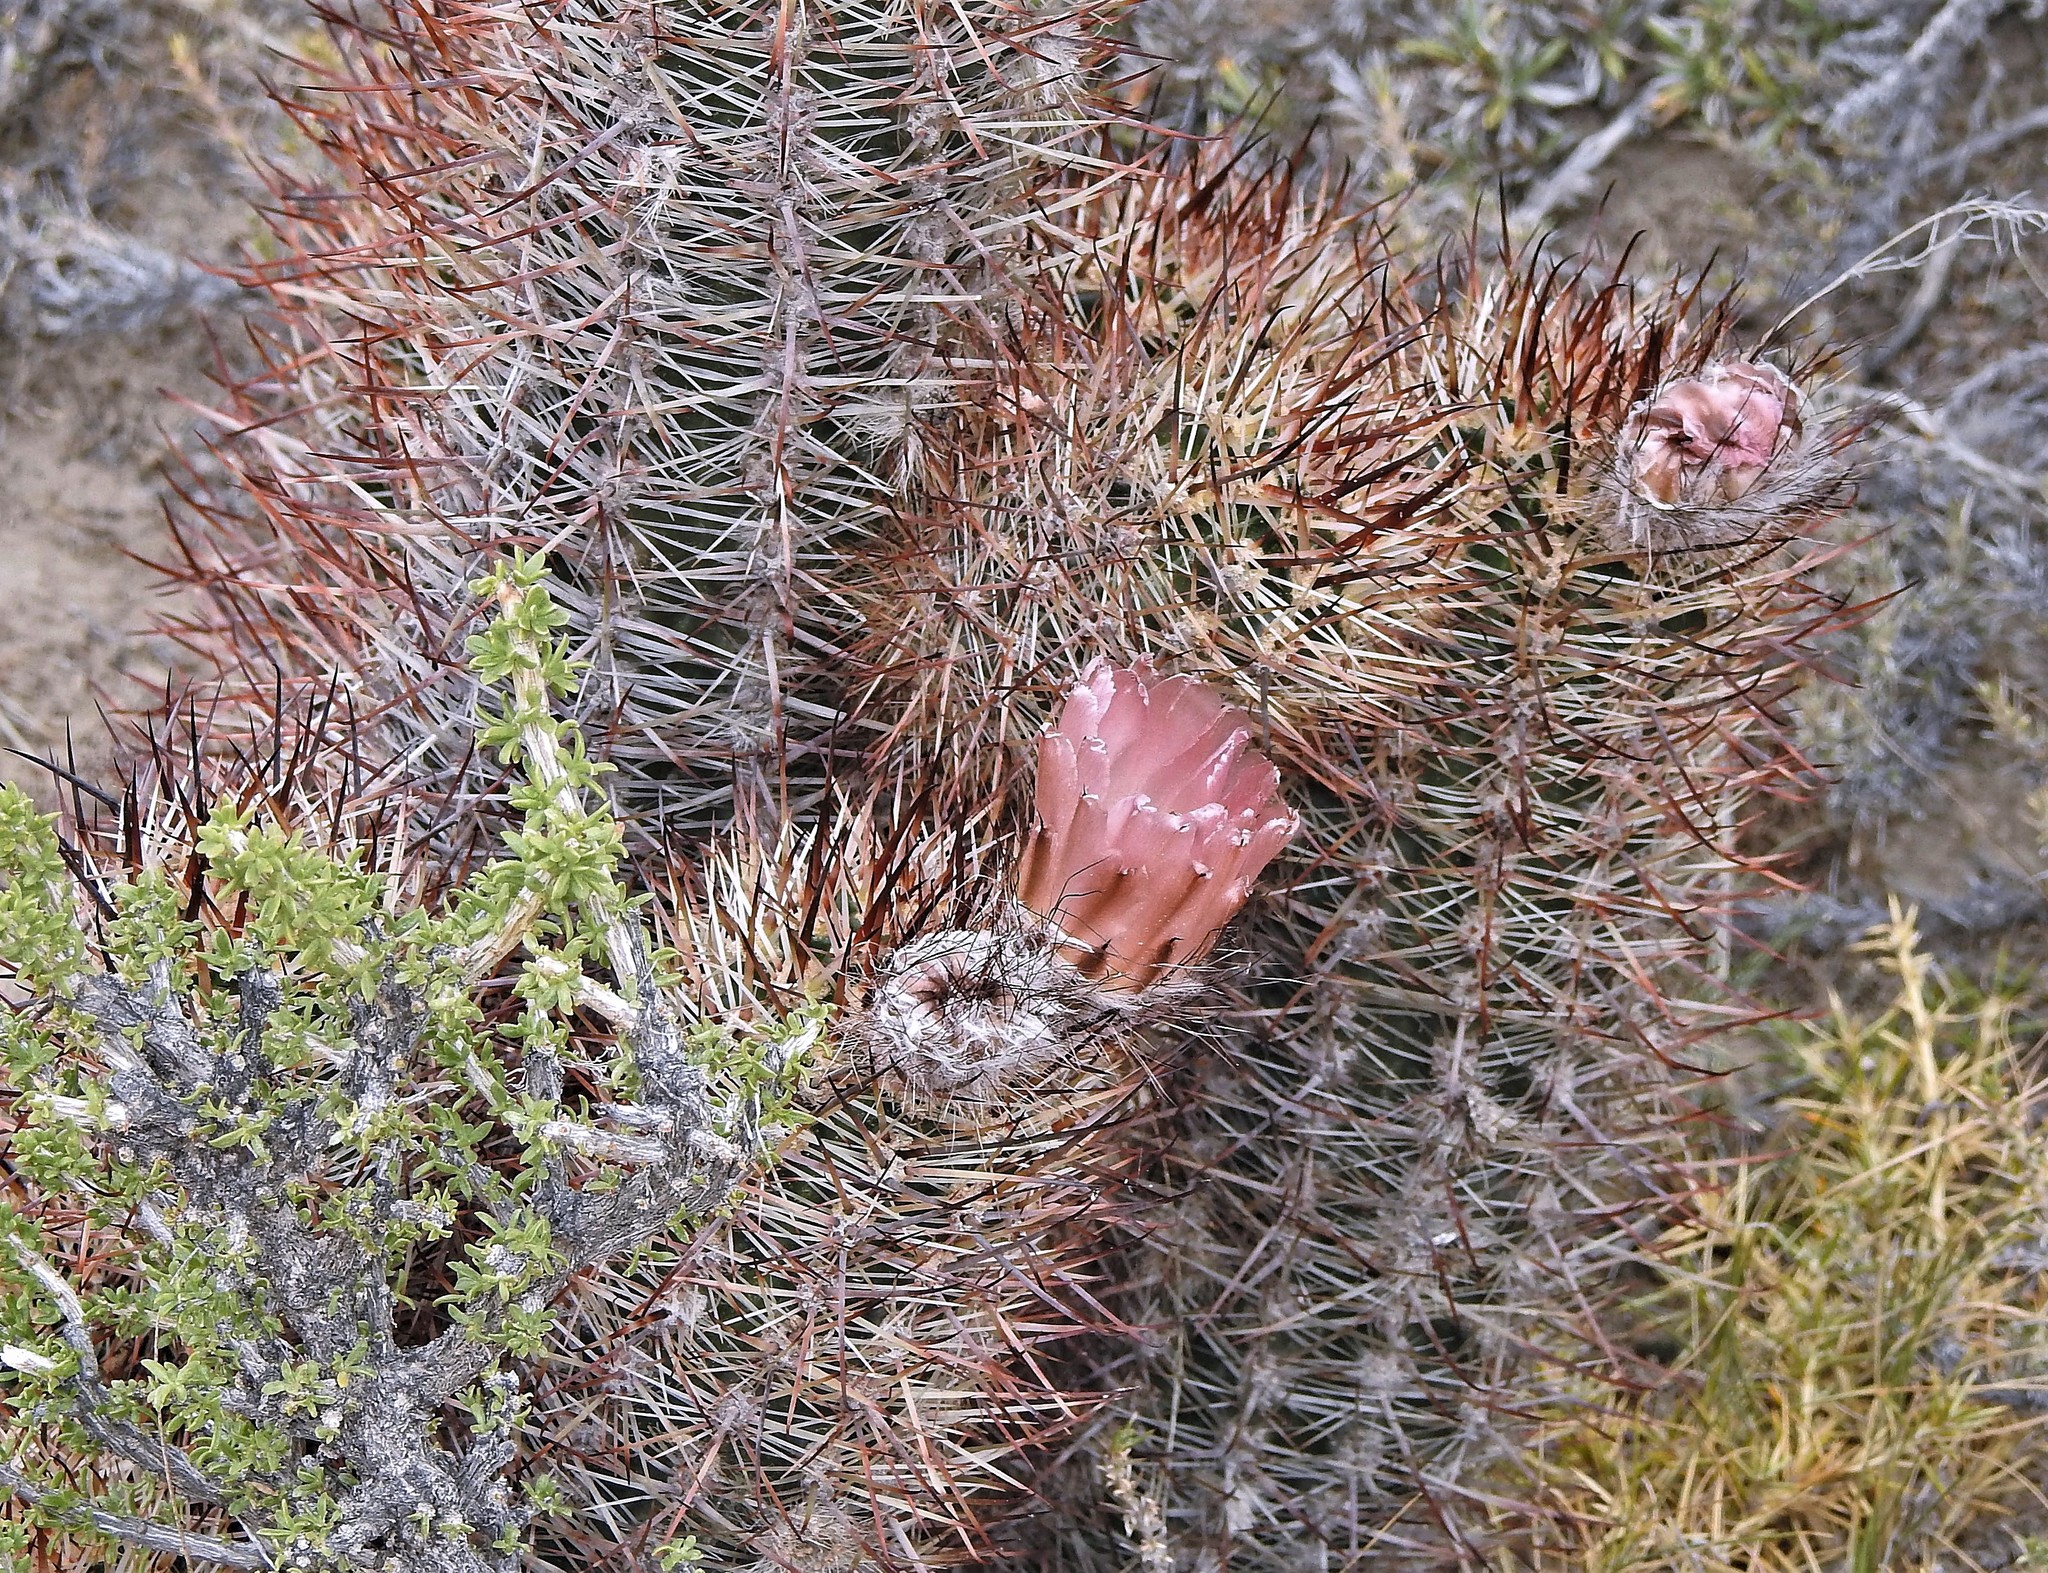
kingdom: Plantae
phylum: Tracheophyta
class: Magnoliopsida
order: Caryophyllales
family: Cactaceae
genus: Austrocactus
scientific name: Austrocactus bertinii
